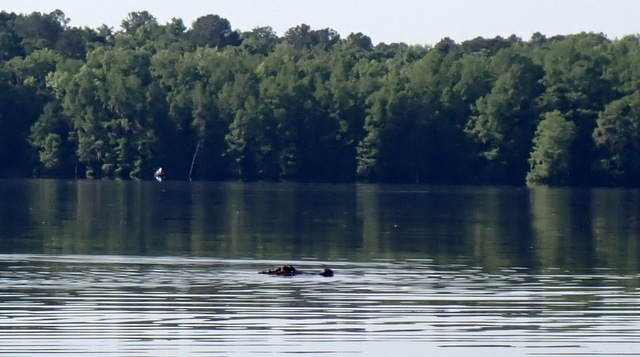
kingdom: Animalia
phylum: Chordata
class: Crocodylia
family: Alligatoridae
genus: Alligator
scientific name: Alligator mississippiensis
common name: American alligator
